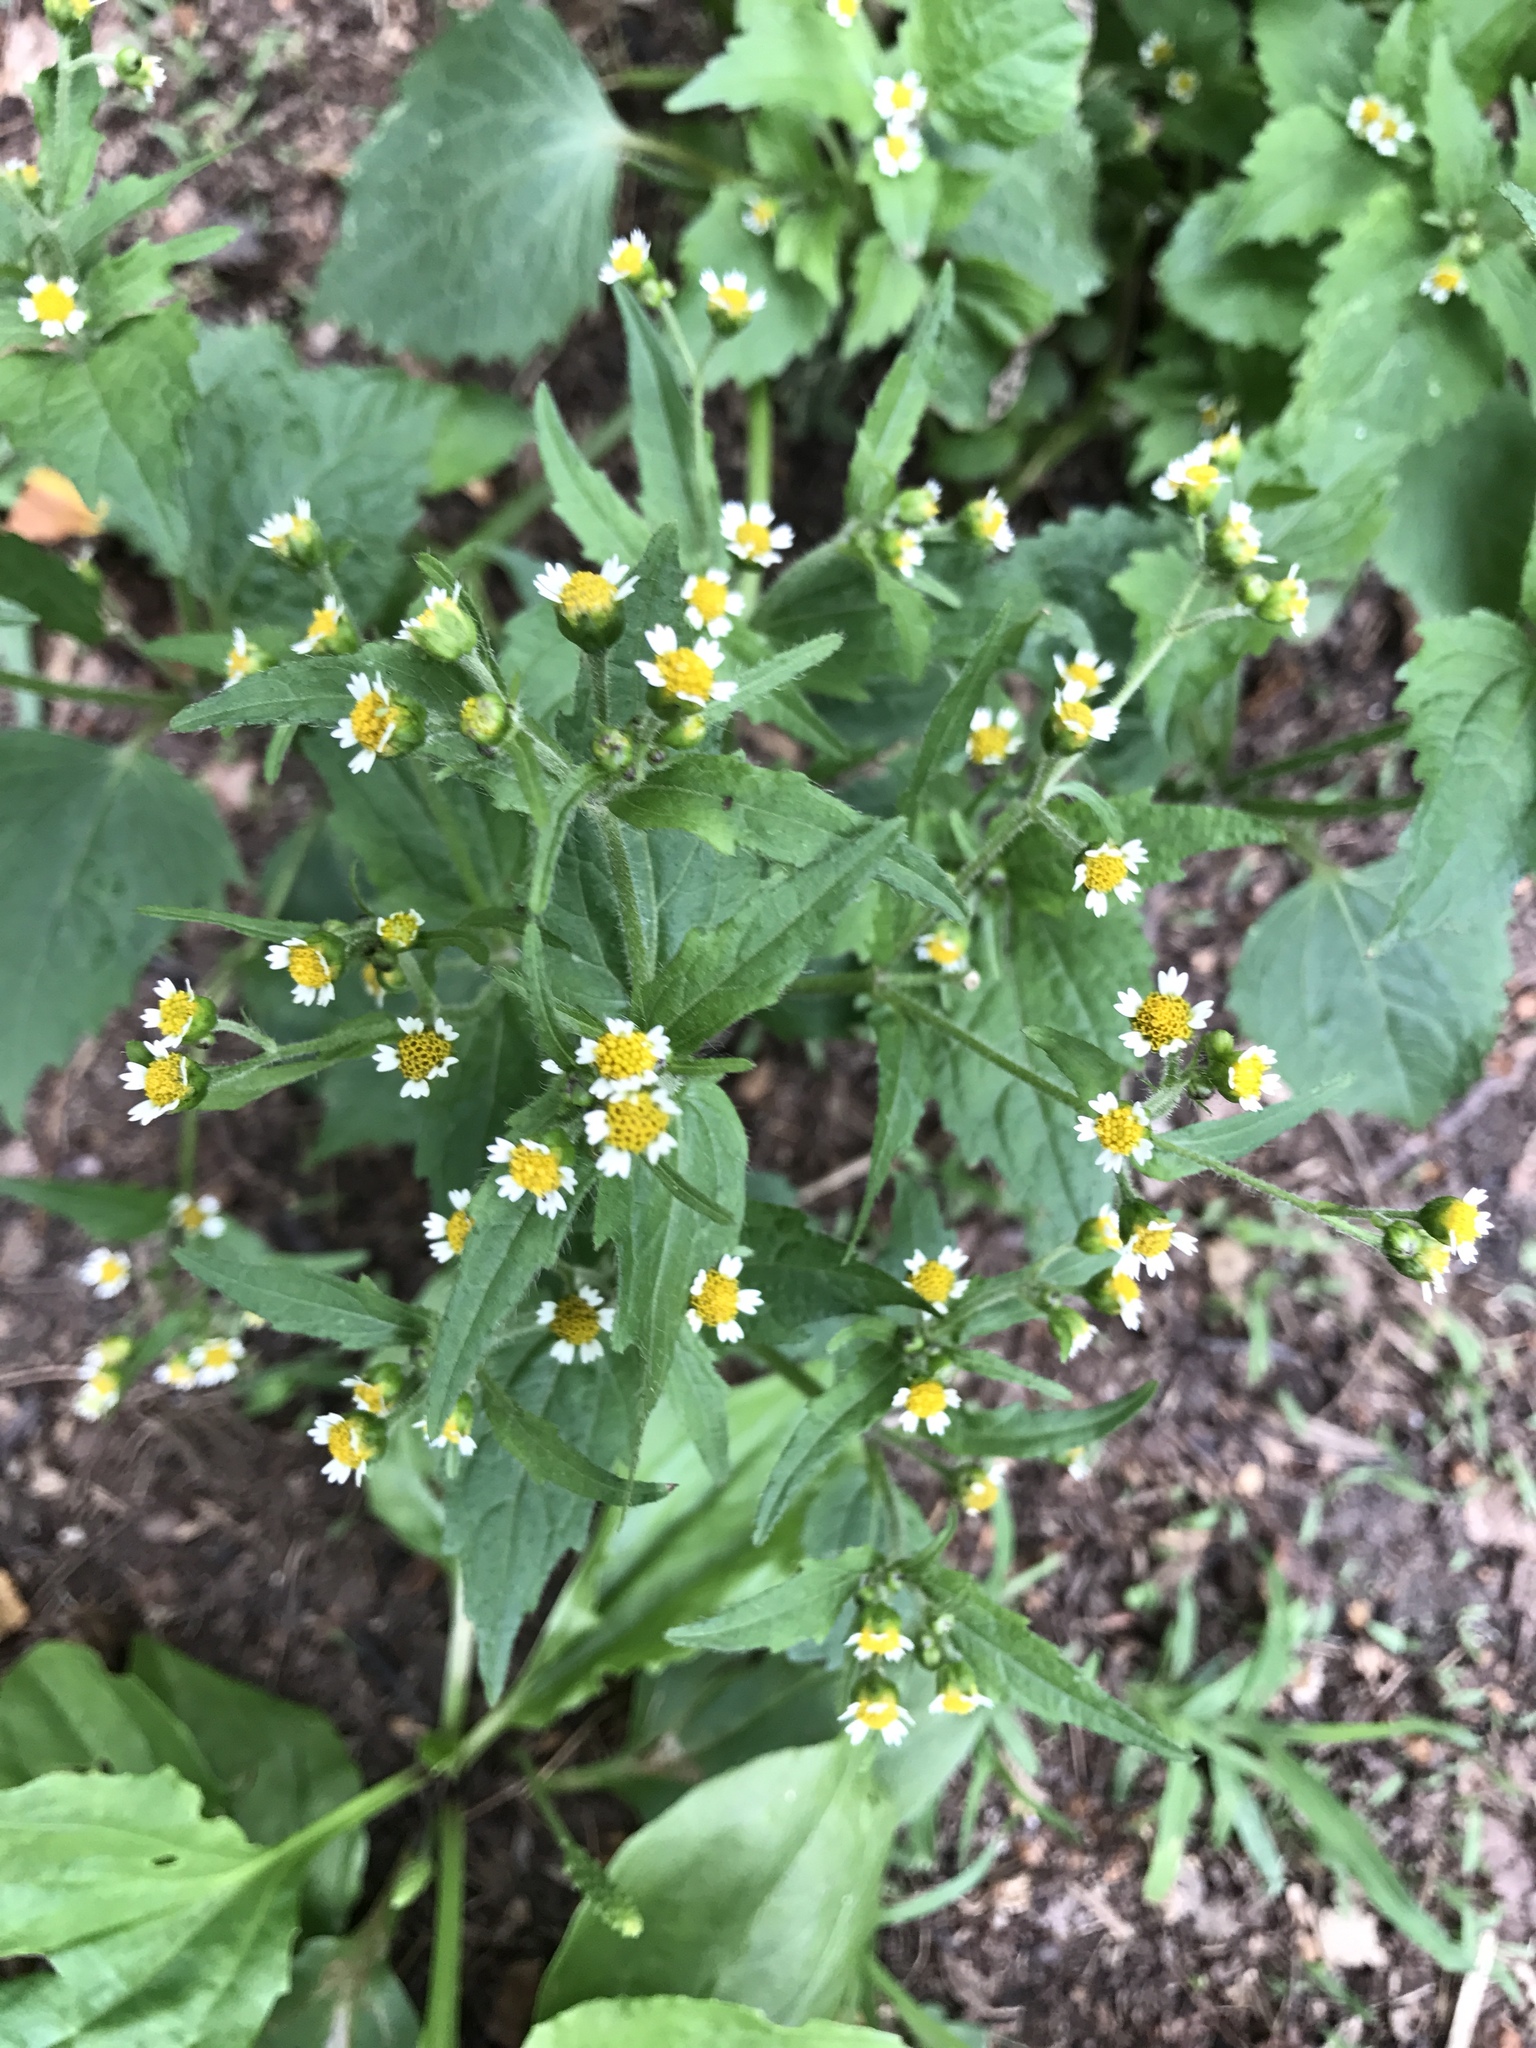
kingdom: Plantae
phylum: Tracheophyta
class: Magnoliopsida
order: Asterales
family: Asteraceae
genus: Galinsoga
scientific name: Galinsoga quadriradiata
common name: Shaggy soldier
